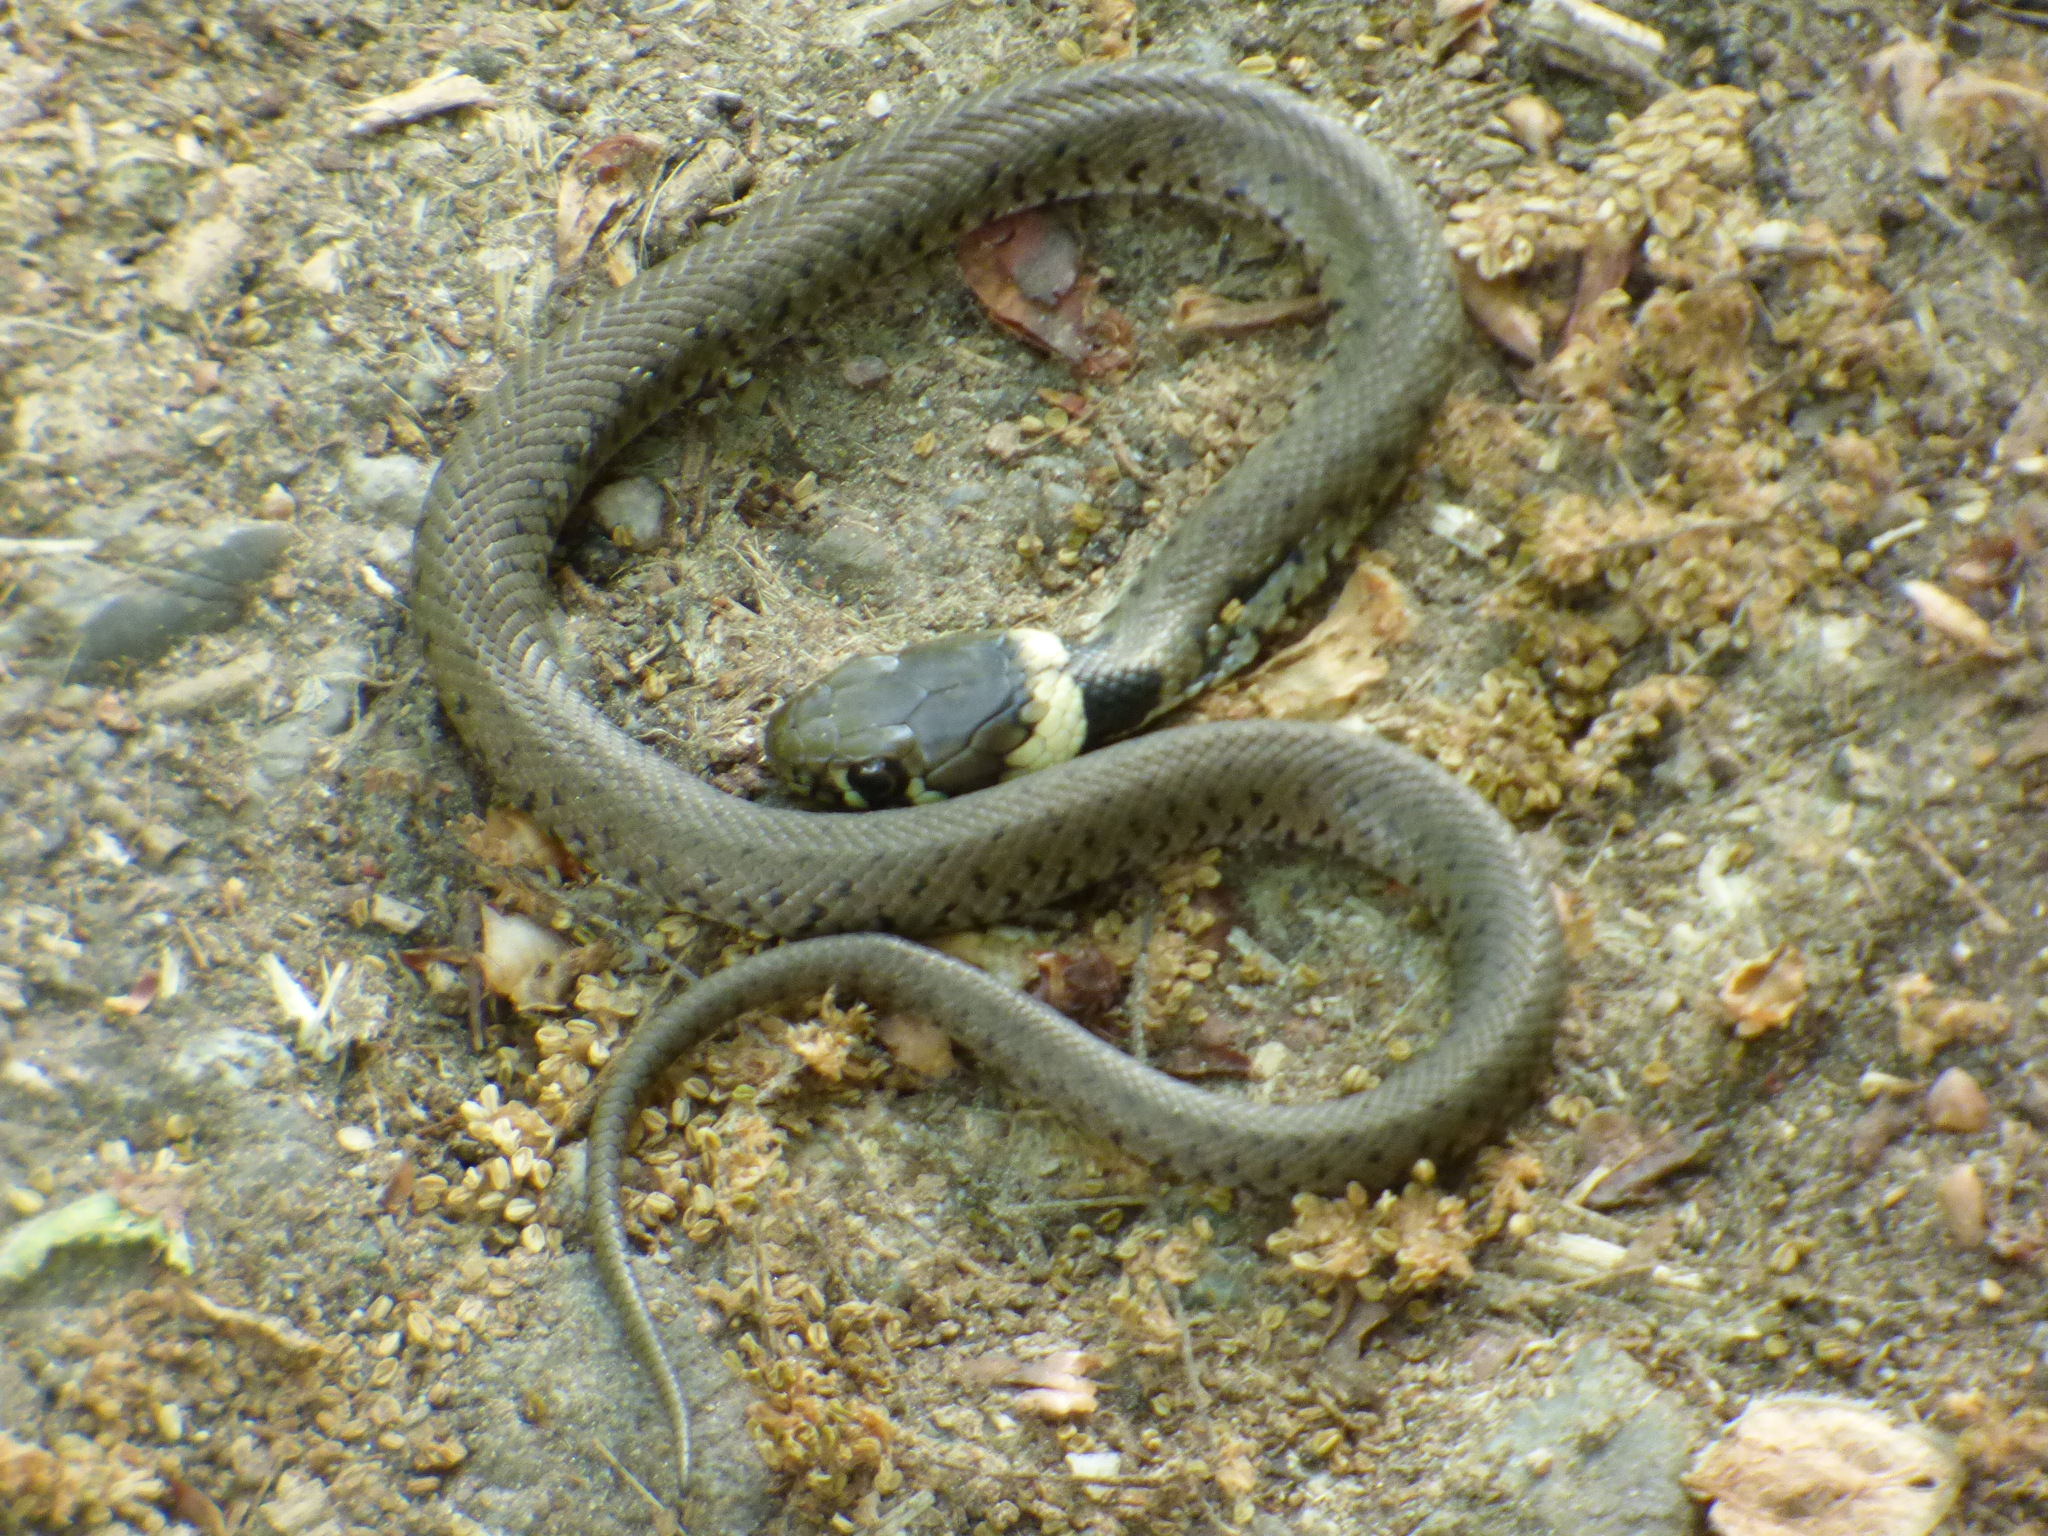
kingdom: Animalia
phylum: Chordata
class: Squamata
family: Colubridae
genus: Natrix
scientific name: Natrix helvetica
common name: Banded grass snake
